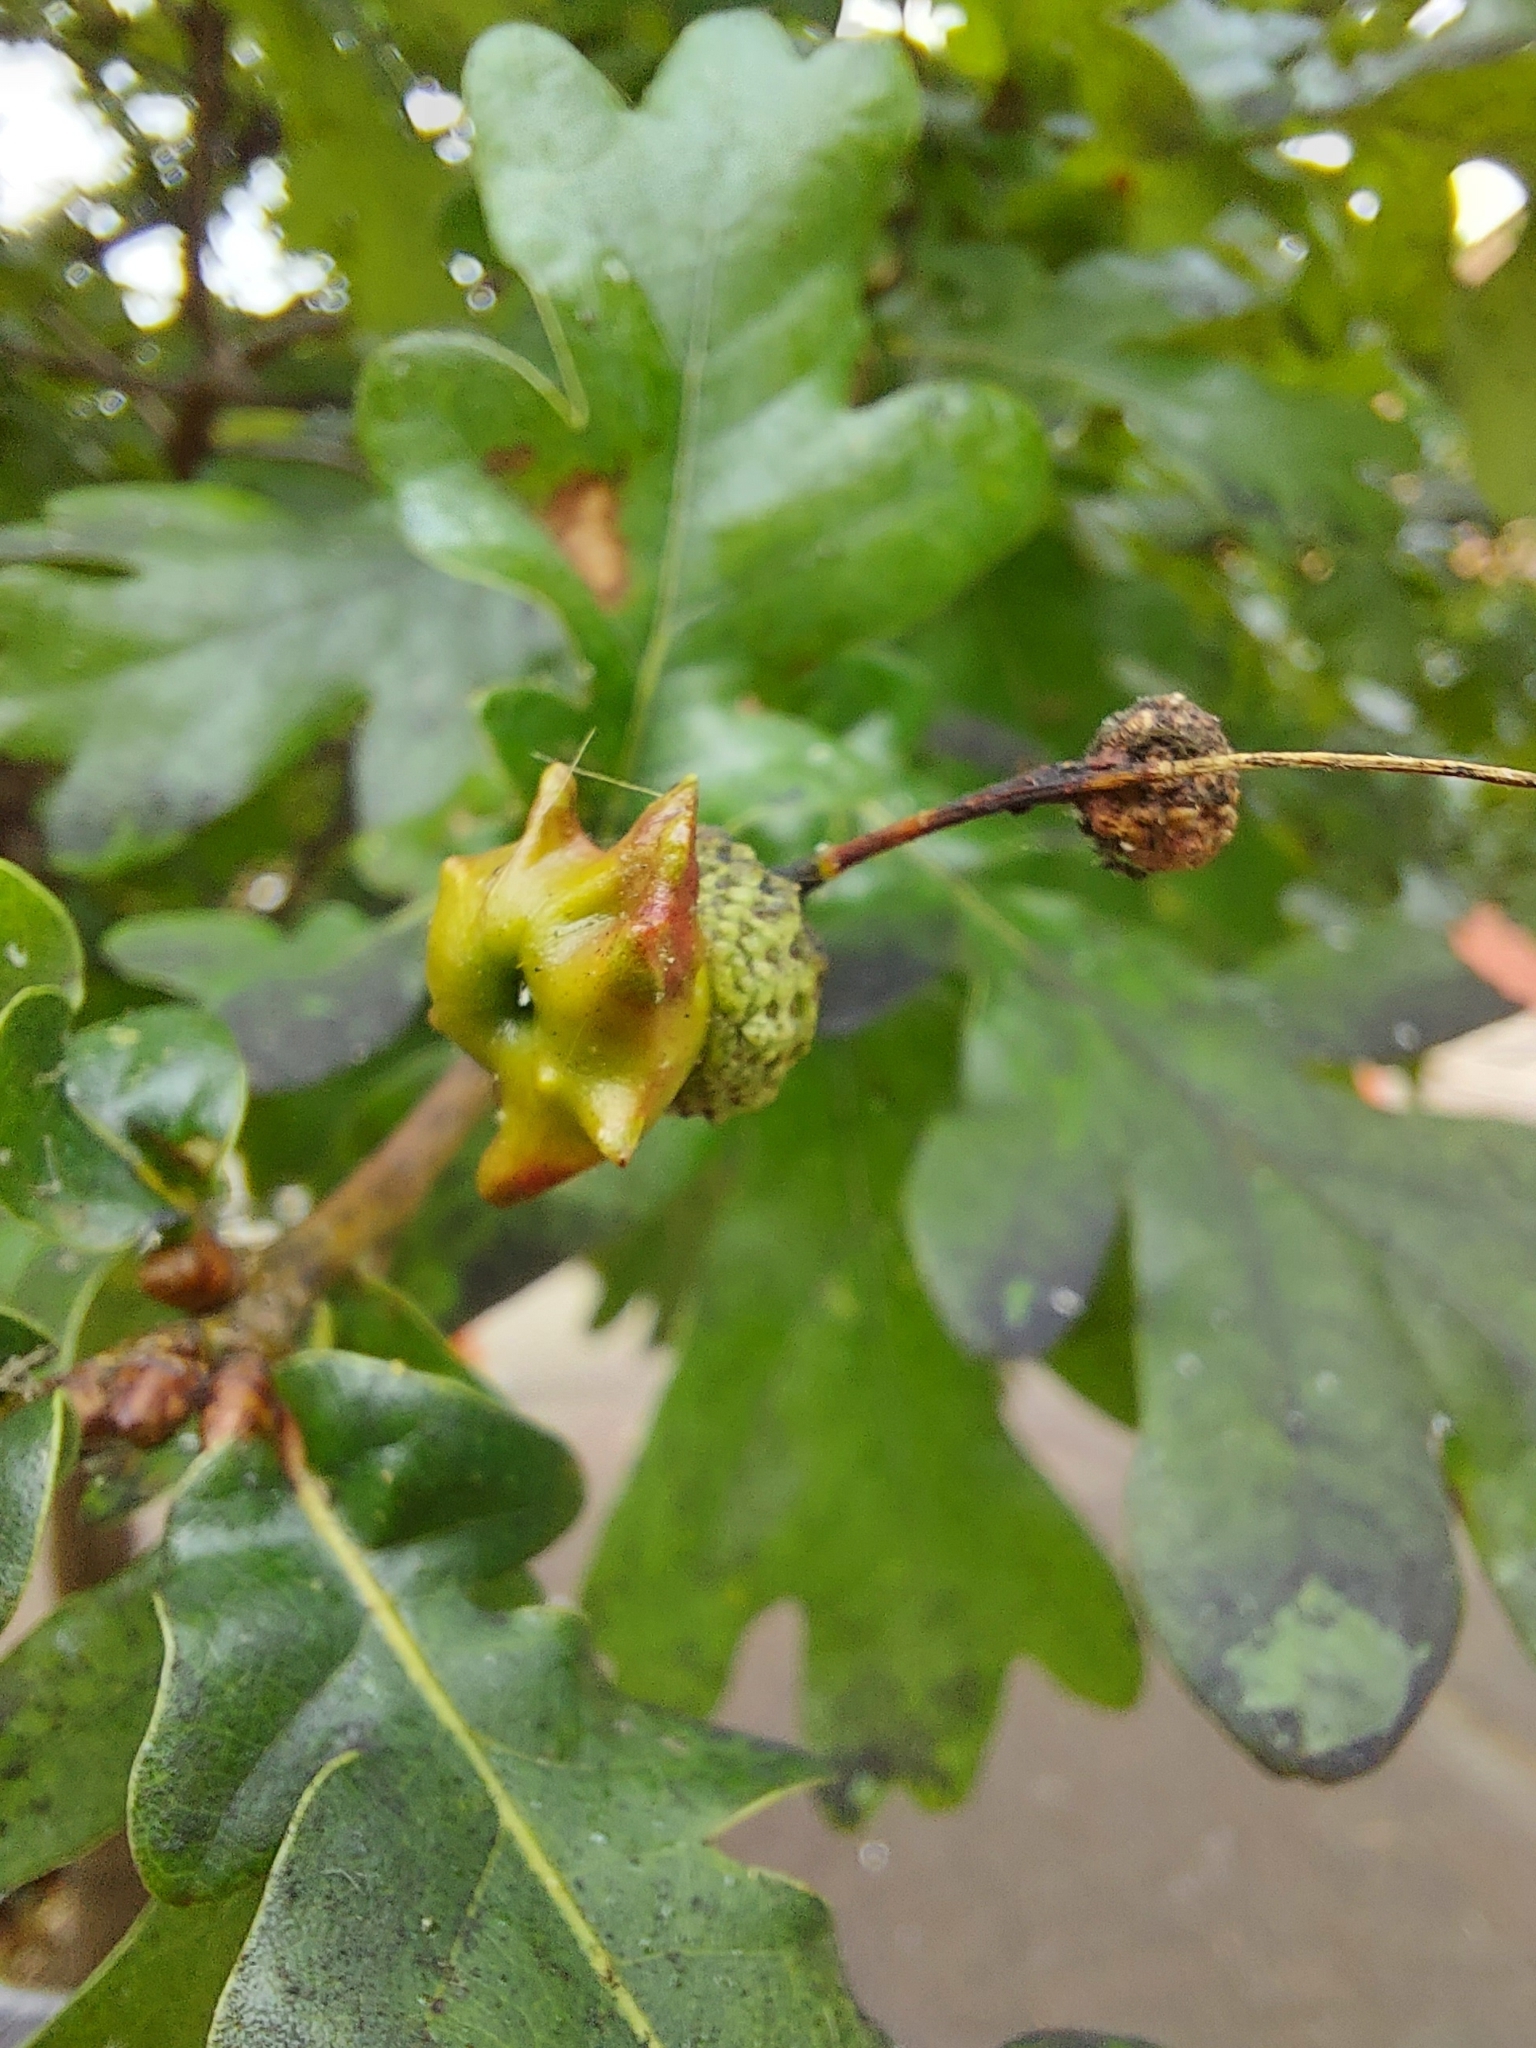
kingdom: Animalia
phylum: Arthropoda
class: Insecta
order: Hymenoptera
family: Cynipidae
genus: Andricus
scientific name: Andricus quercuscalicis
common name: Knopper gall
